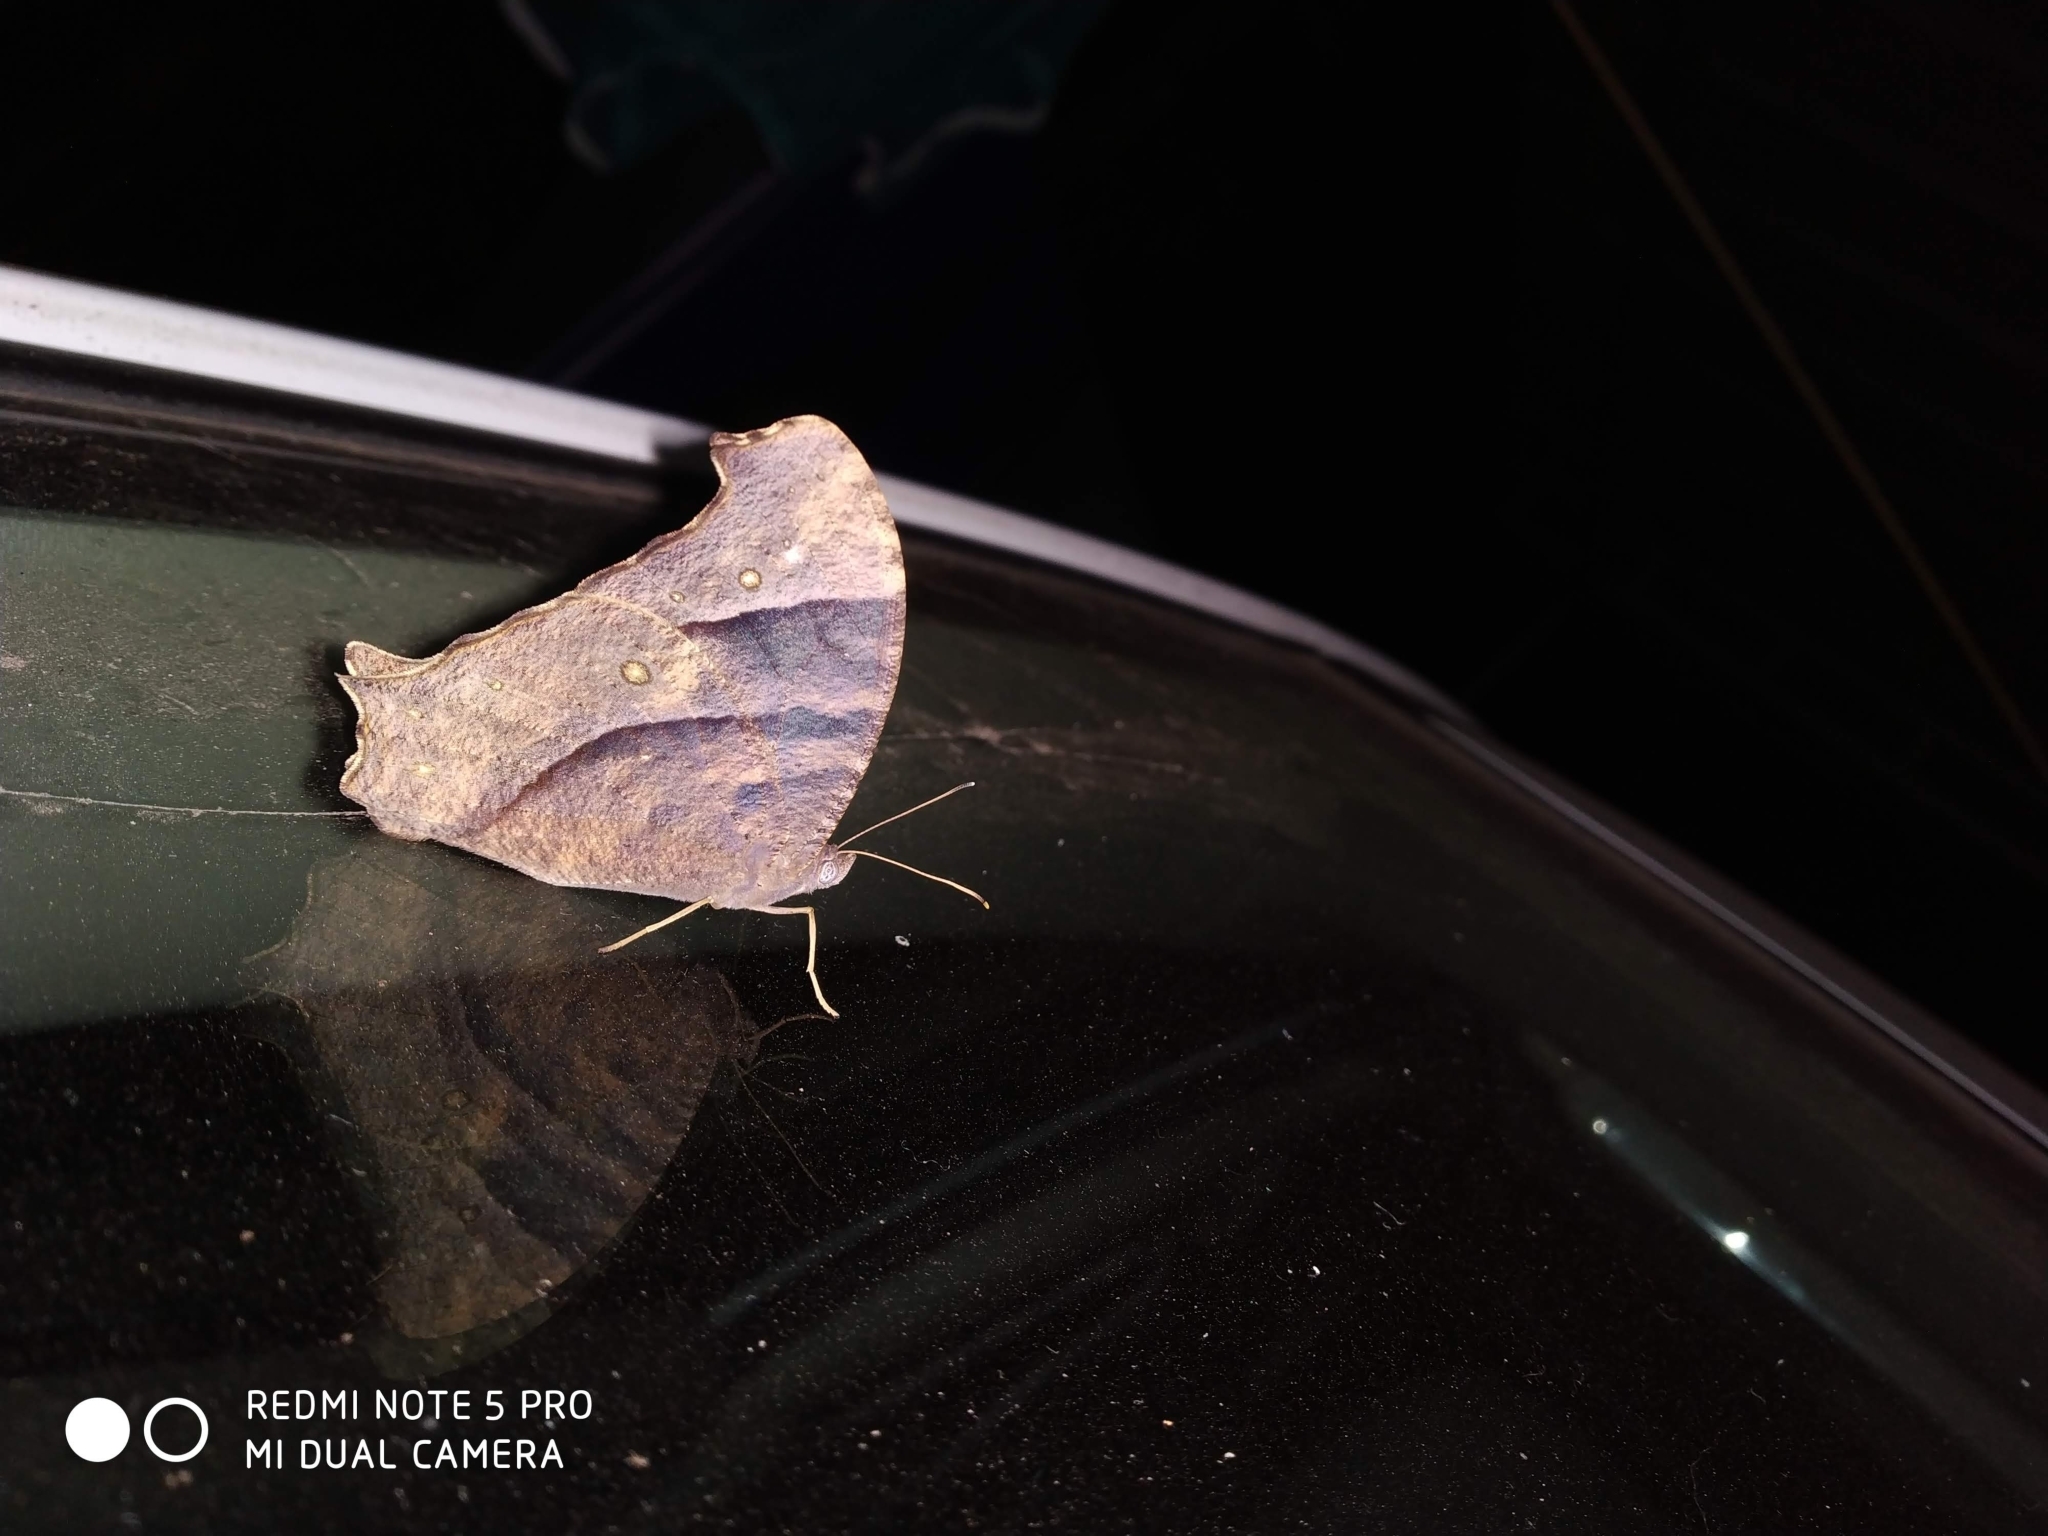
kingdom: Animalia
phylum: Arthropoda
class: Insecta
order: Lepidoptera
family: Nymphalidae
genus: Melanitis
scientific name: Melanitis phedima
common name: Dark evening brown
